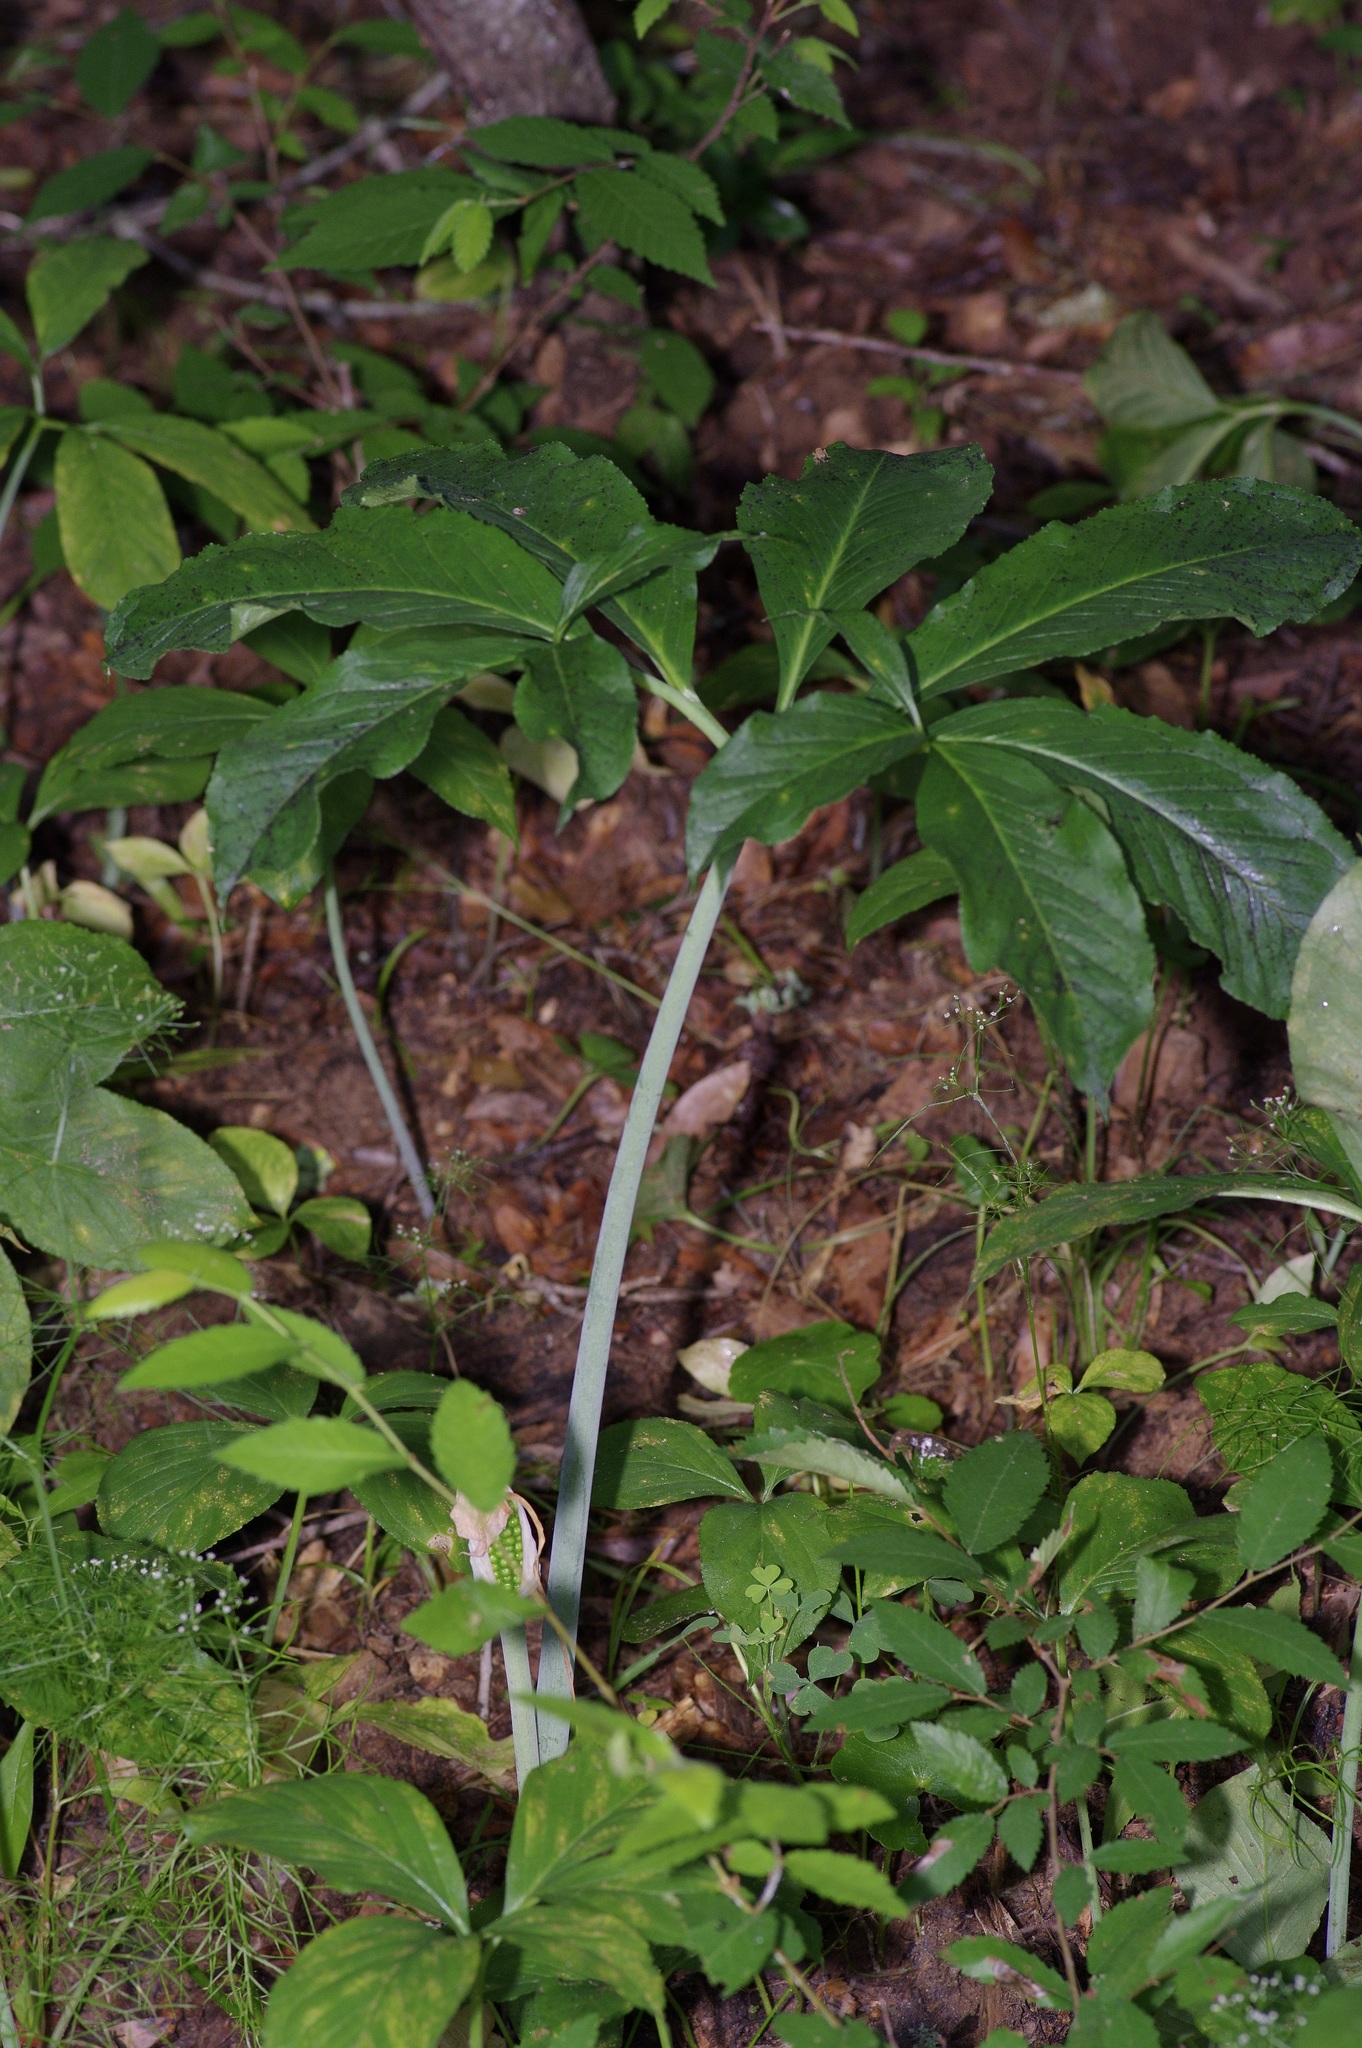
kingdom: Plantae
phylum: Tracheophyta
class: Liliopsida
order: Alismatales
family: Araceae
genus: Arisaema
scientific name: Arisaema dracontium
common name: Dragon-arum
